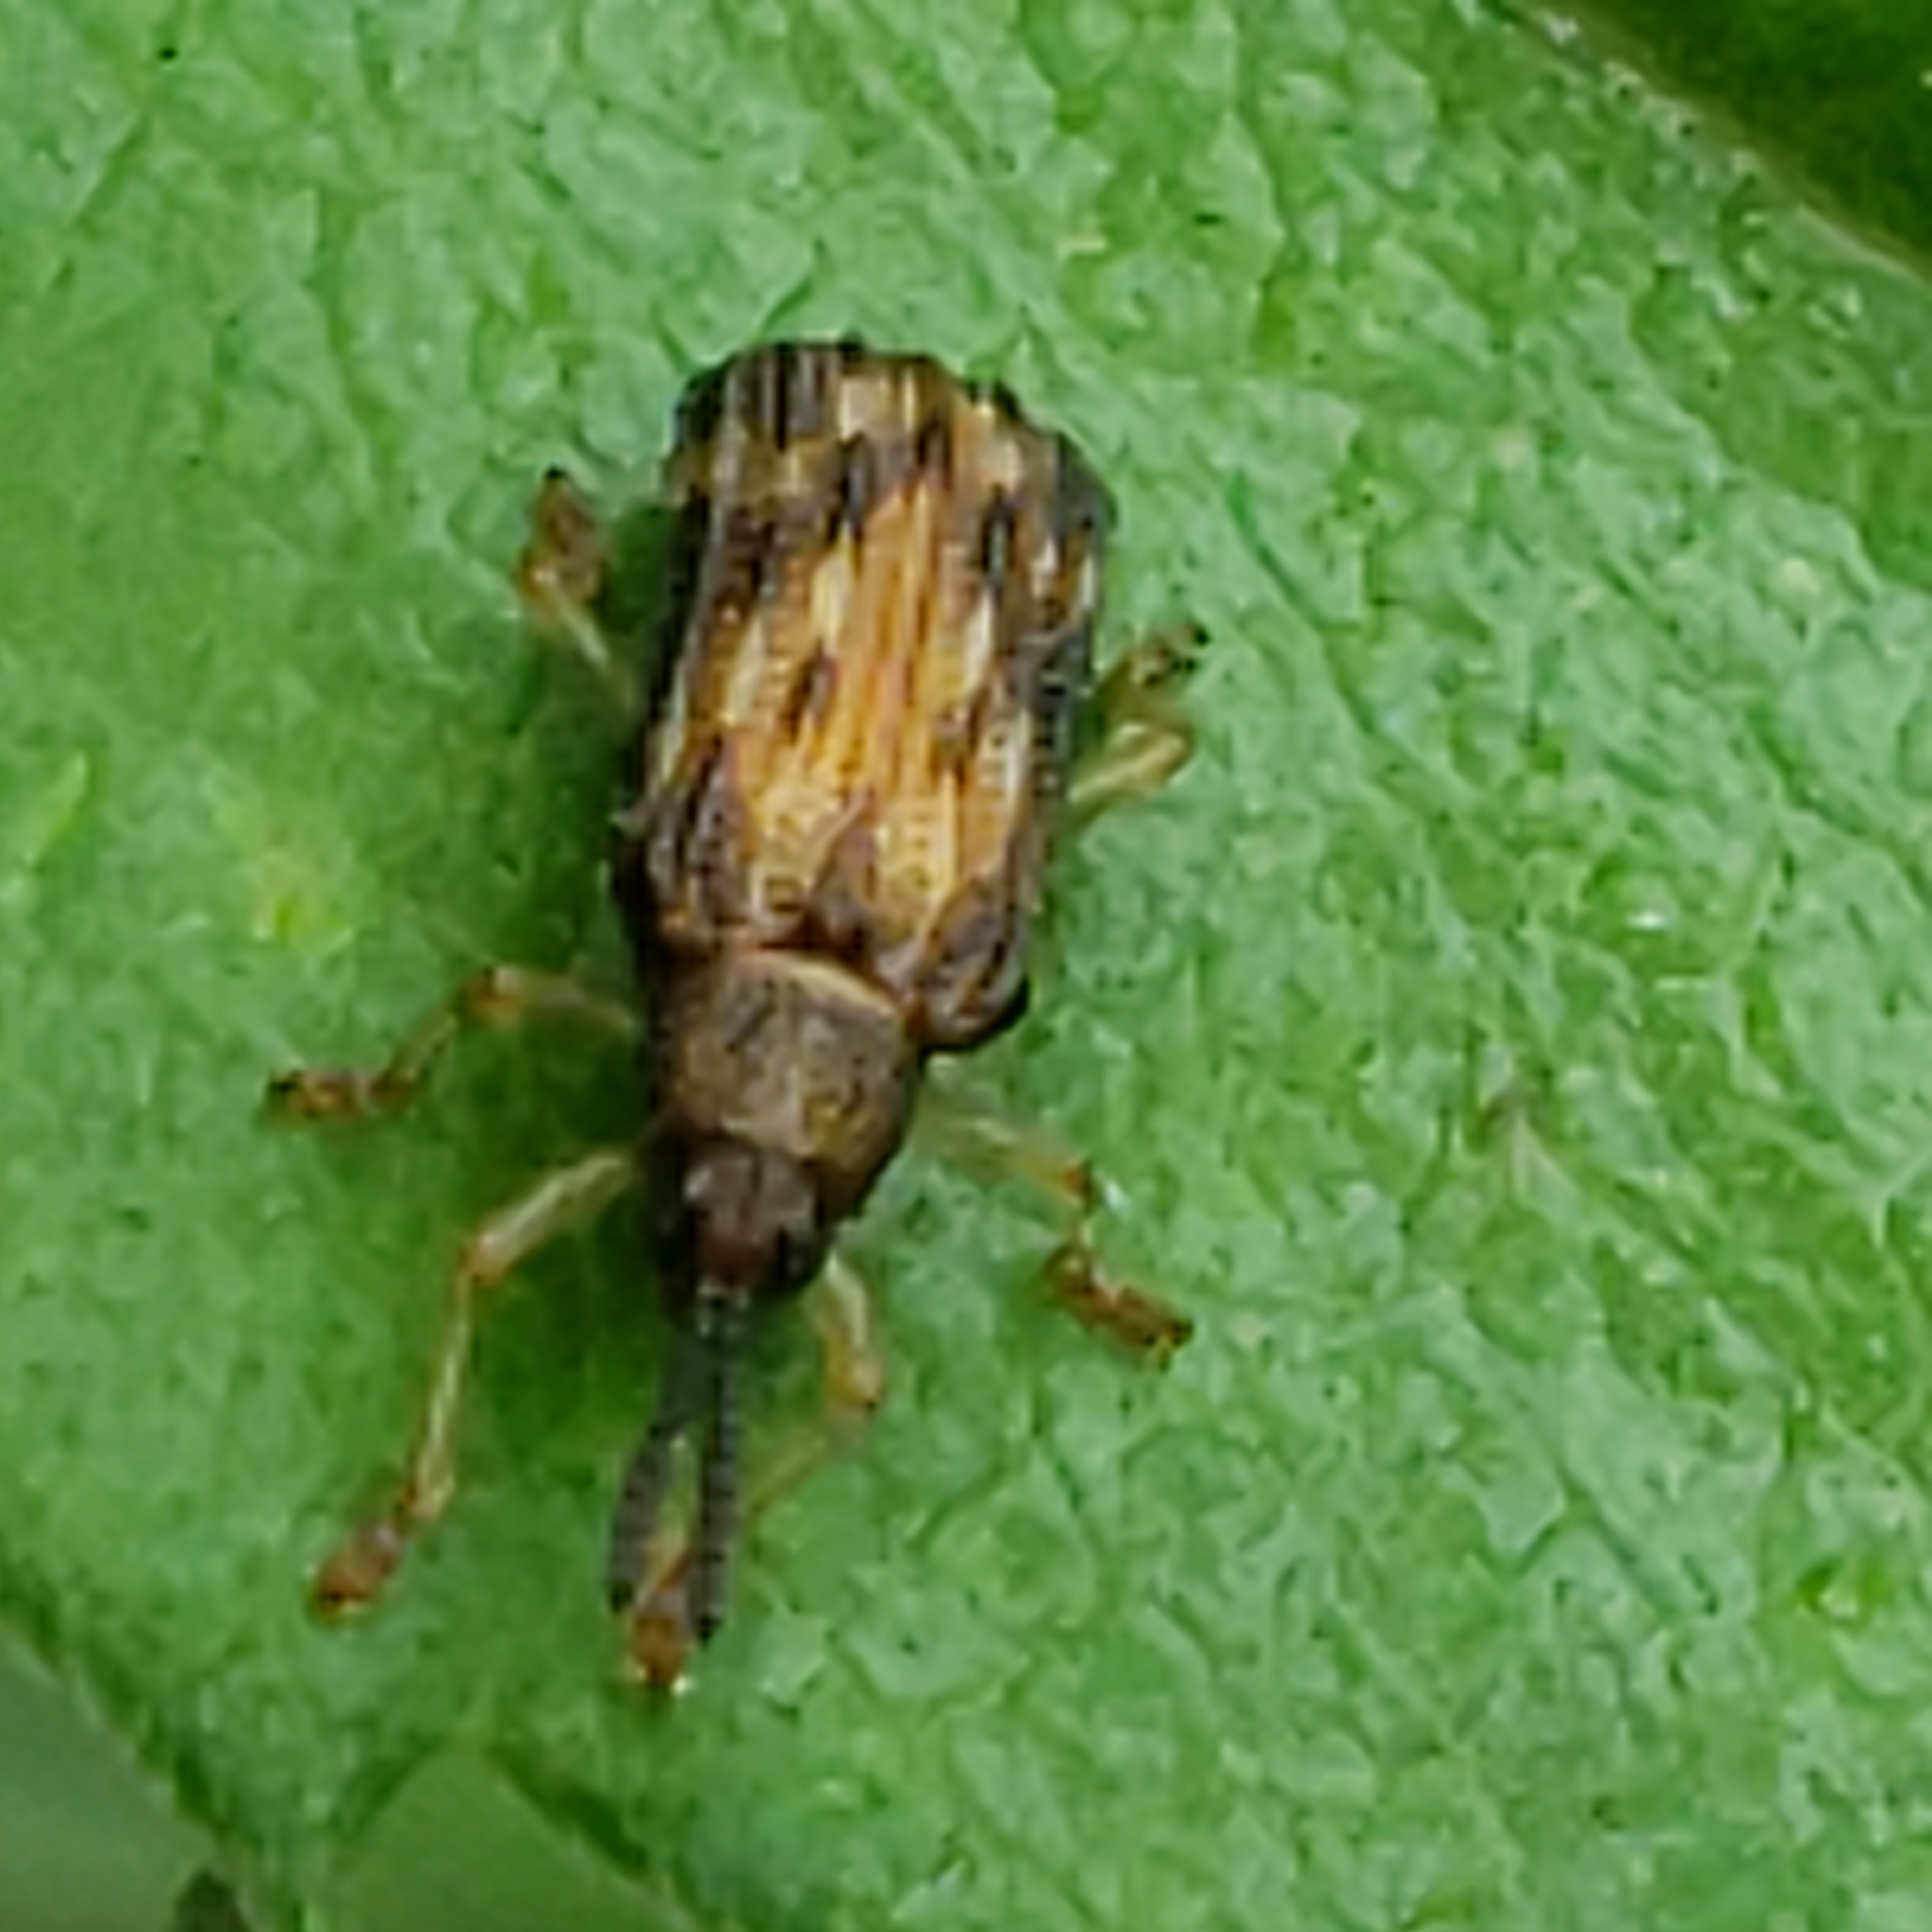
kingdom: Animalia
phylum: Arthropoda
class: Insecta
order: Coleoptera
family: Chrysomelidae
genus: Sumitrosis
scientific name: Sumitrosis inaequalis
